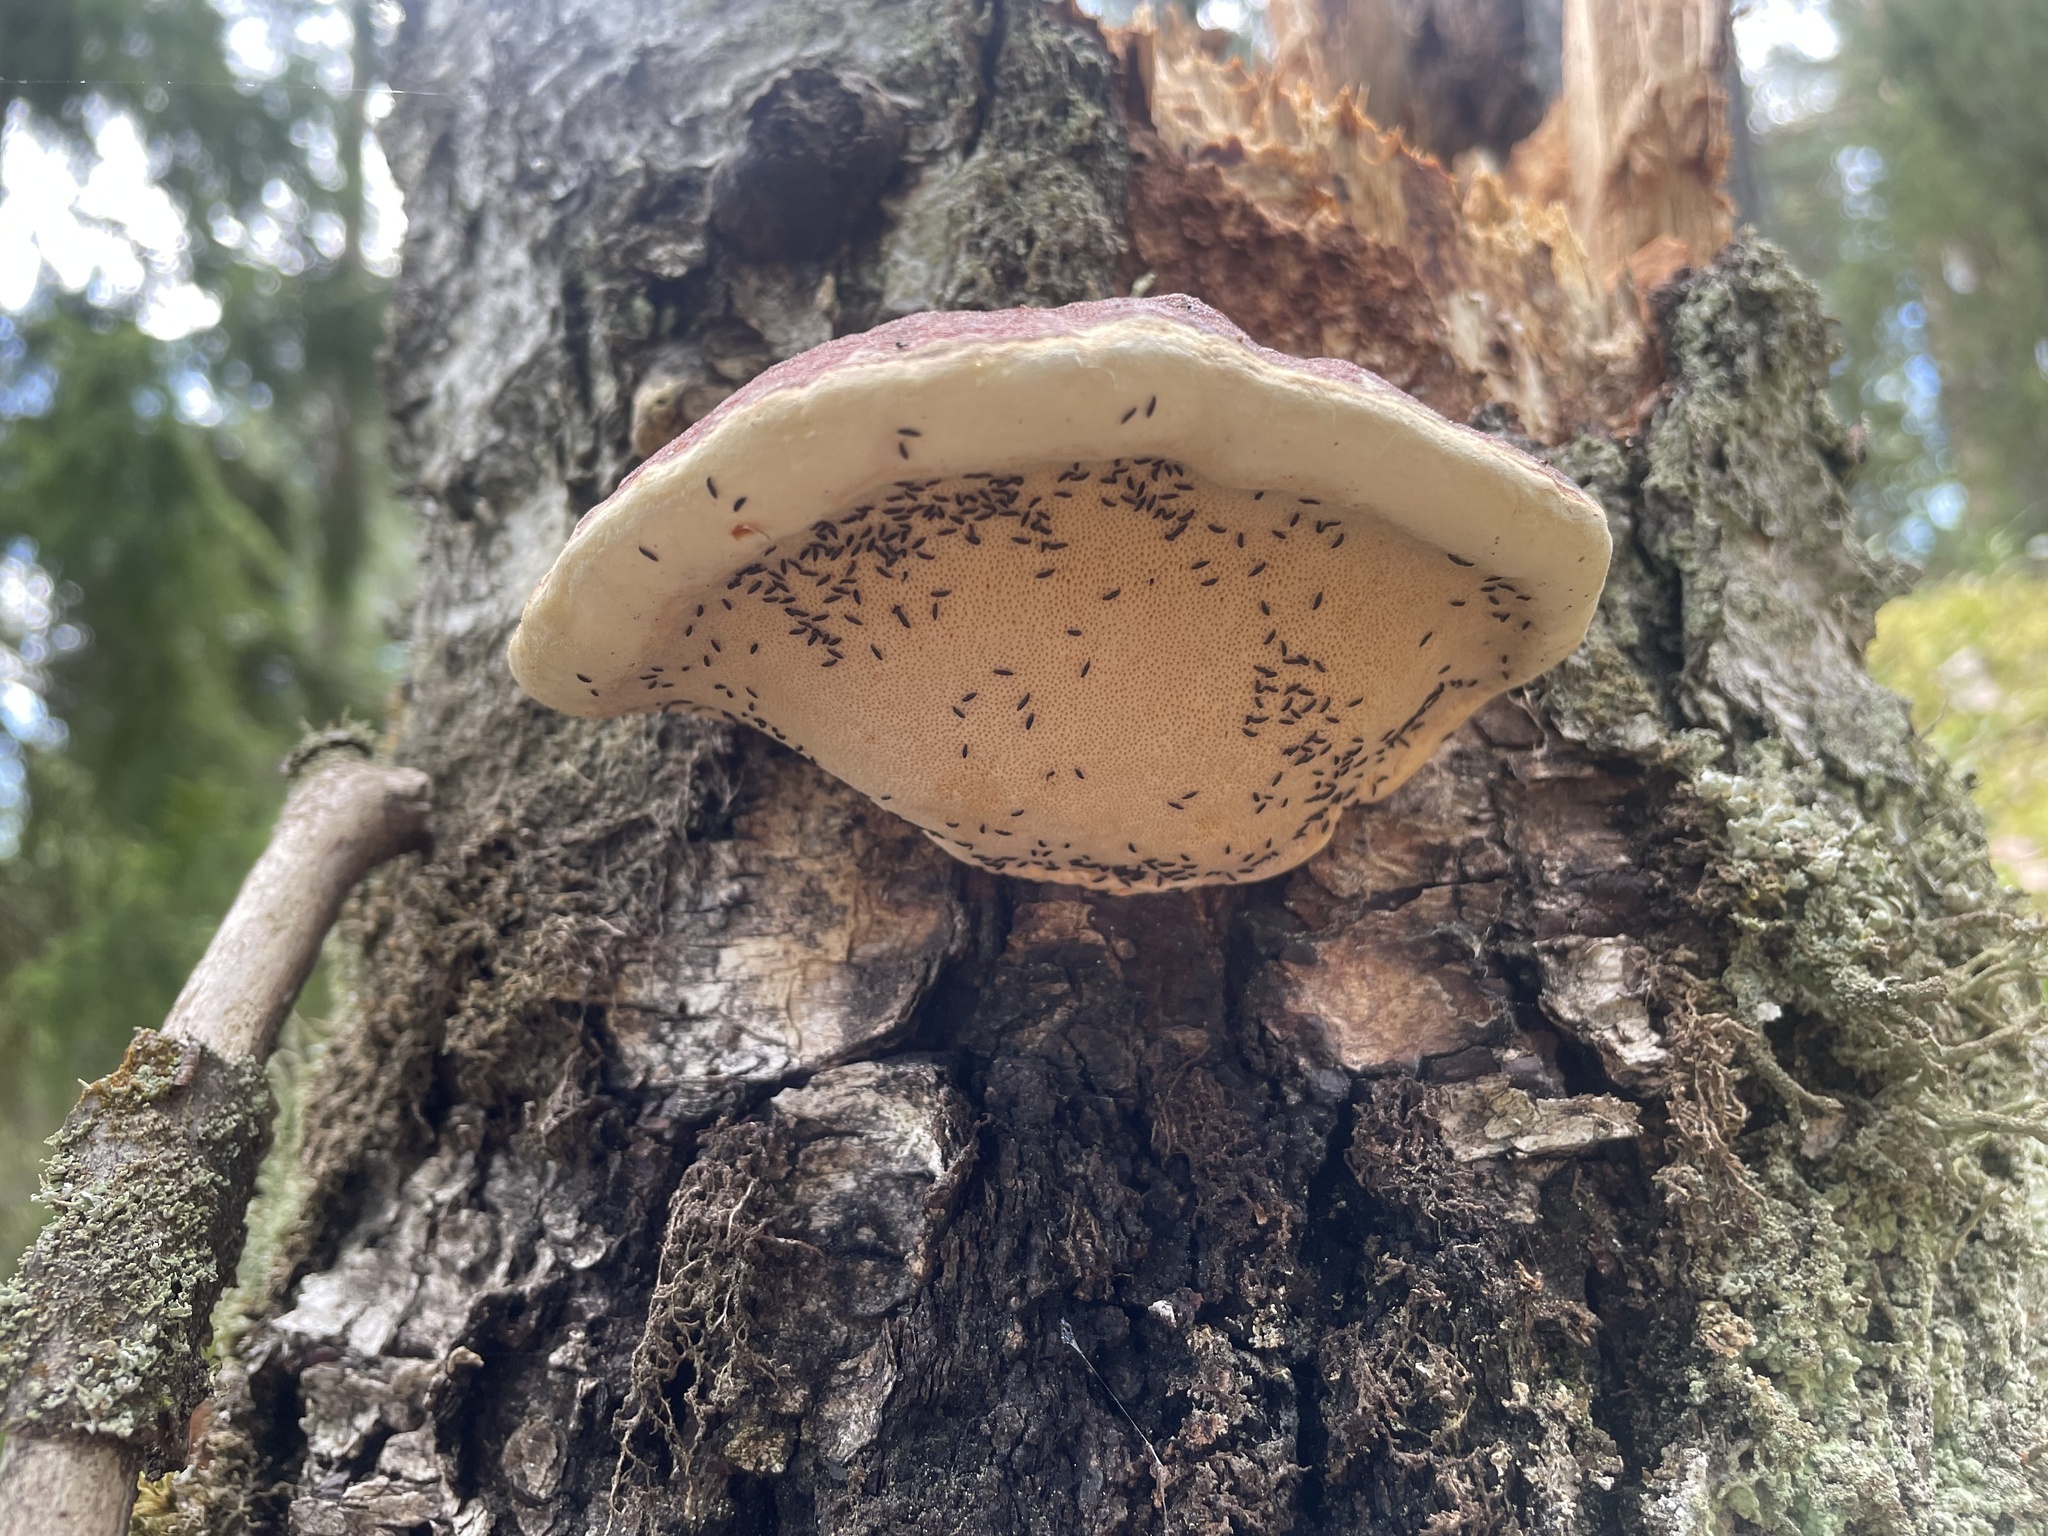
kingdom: Fungi
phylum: Basidiomycota
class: Agaricomycetes
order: Polyporales
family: Fomitopsidaceae
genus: Fomitopsis
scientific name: Fomitopsis pinicola
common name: Red-belted bracket
